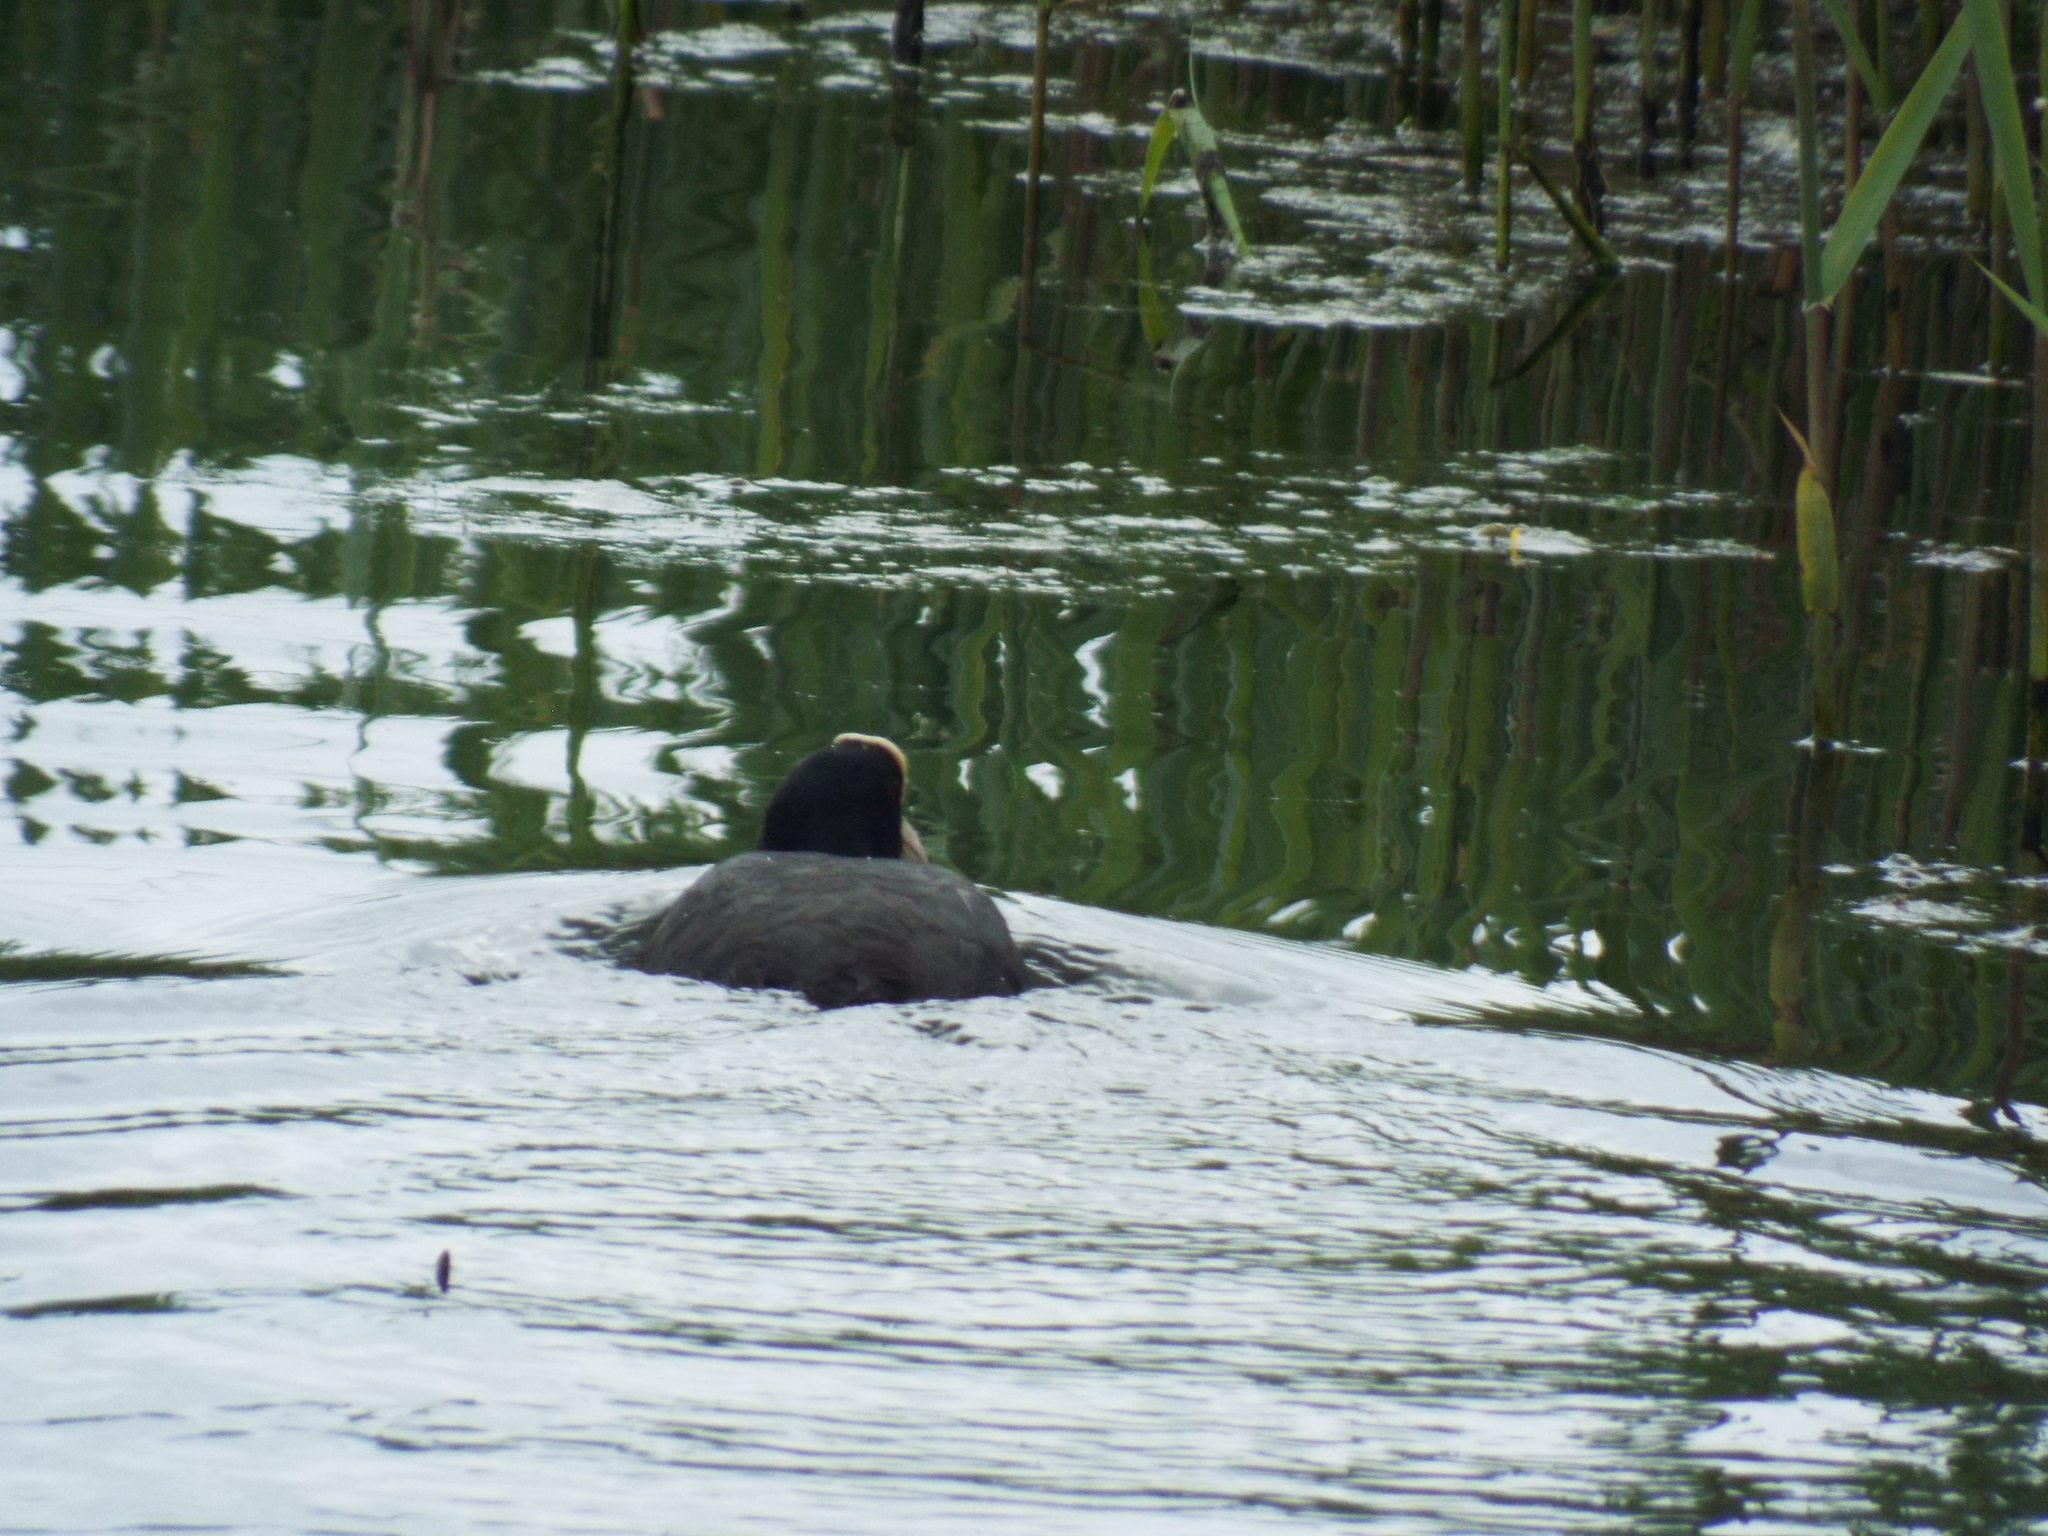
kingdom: Animalia
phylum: Chordata
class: Aves
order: Gruiformes
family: Rallidae
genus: Fulica
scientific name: Fulica atra
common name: Eurasian coot
